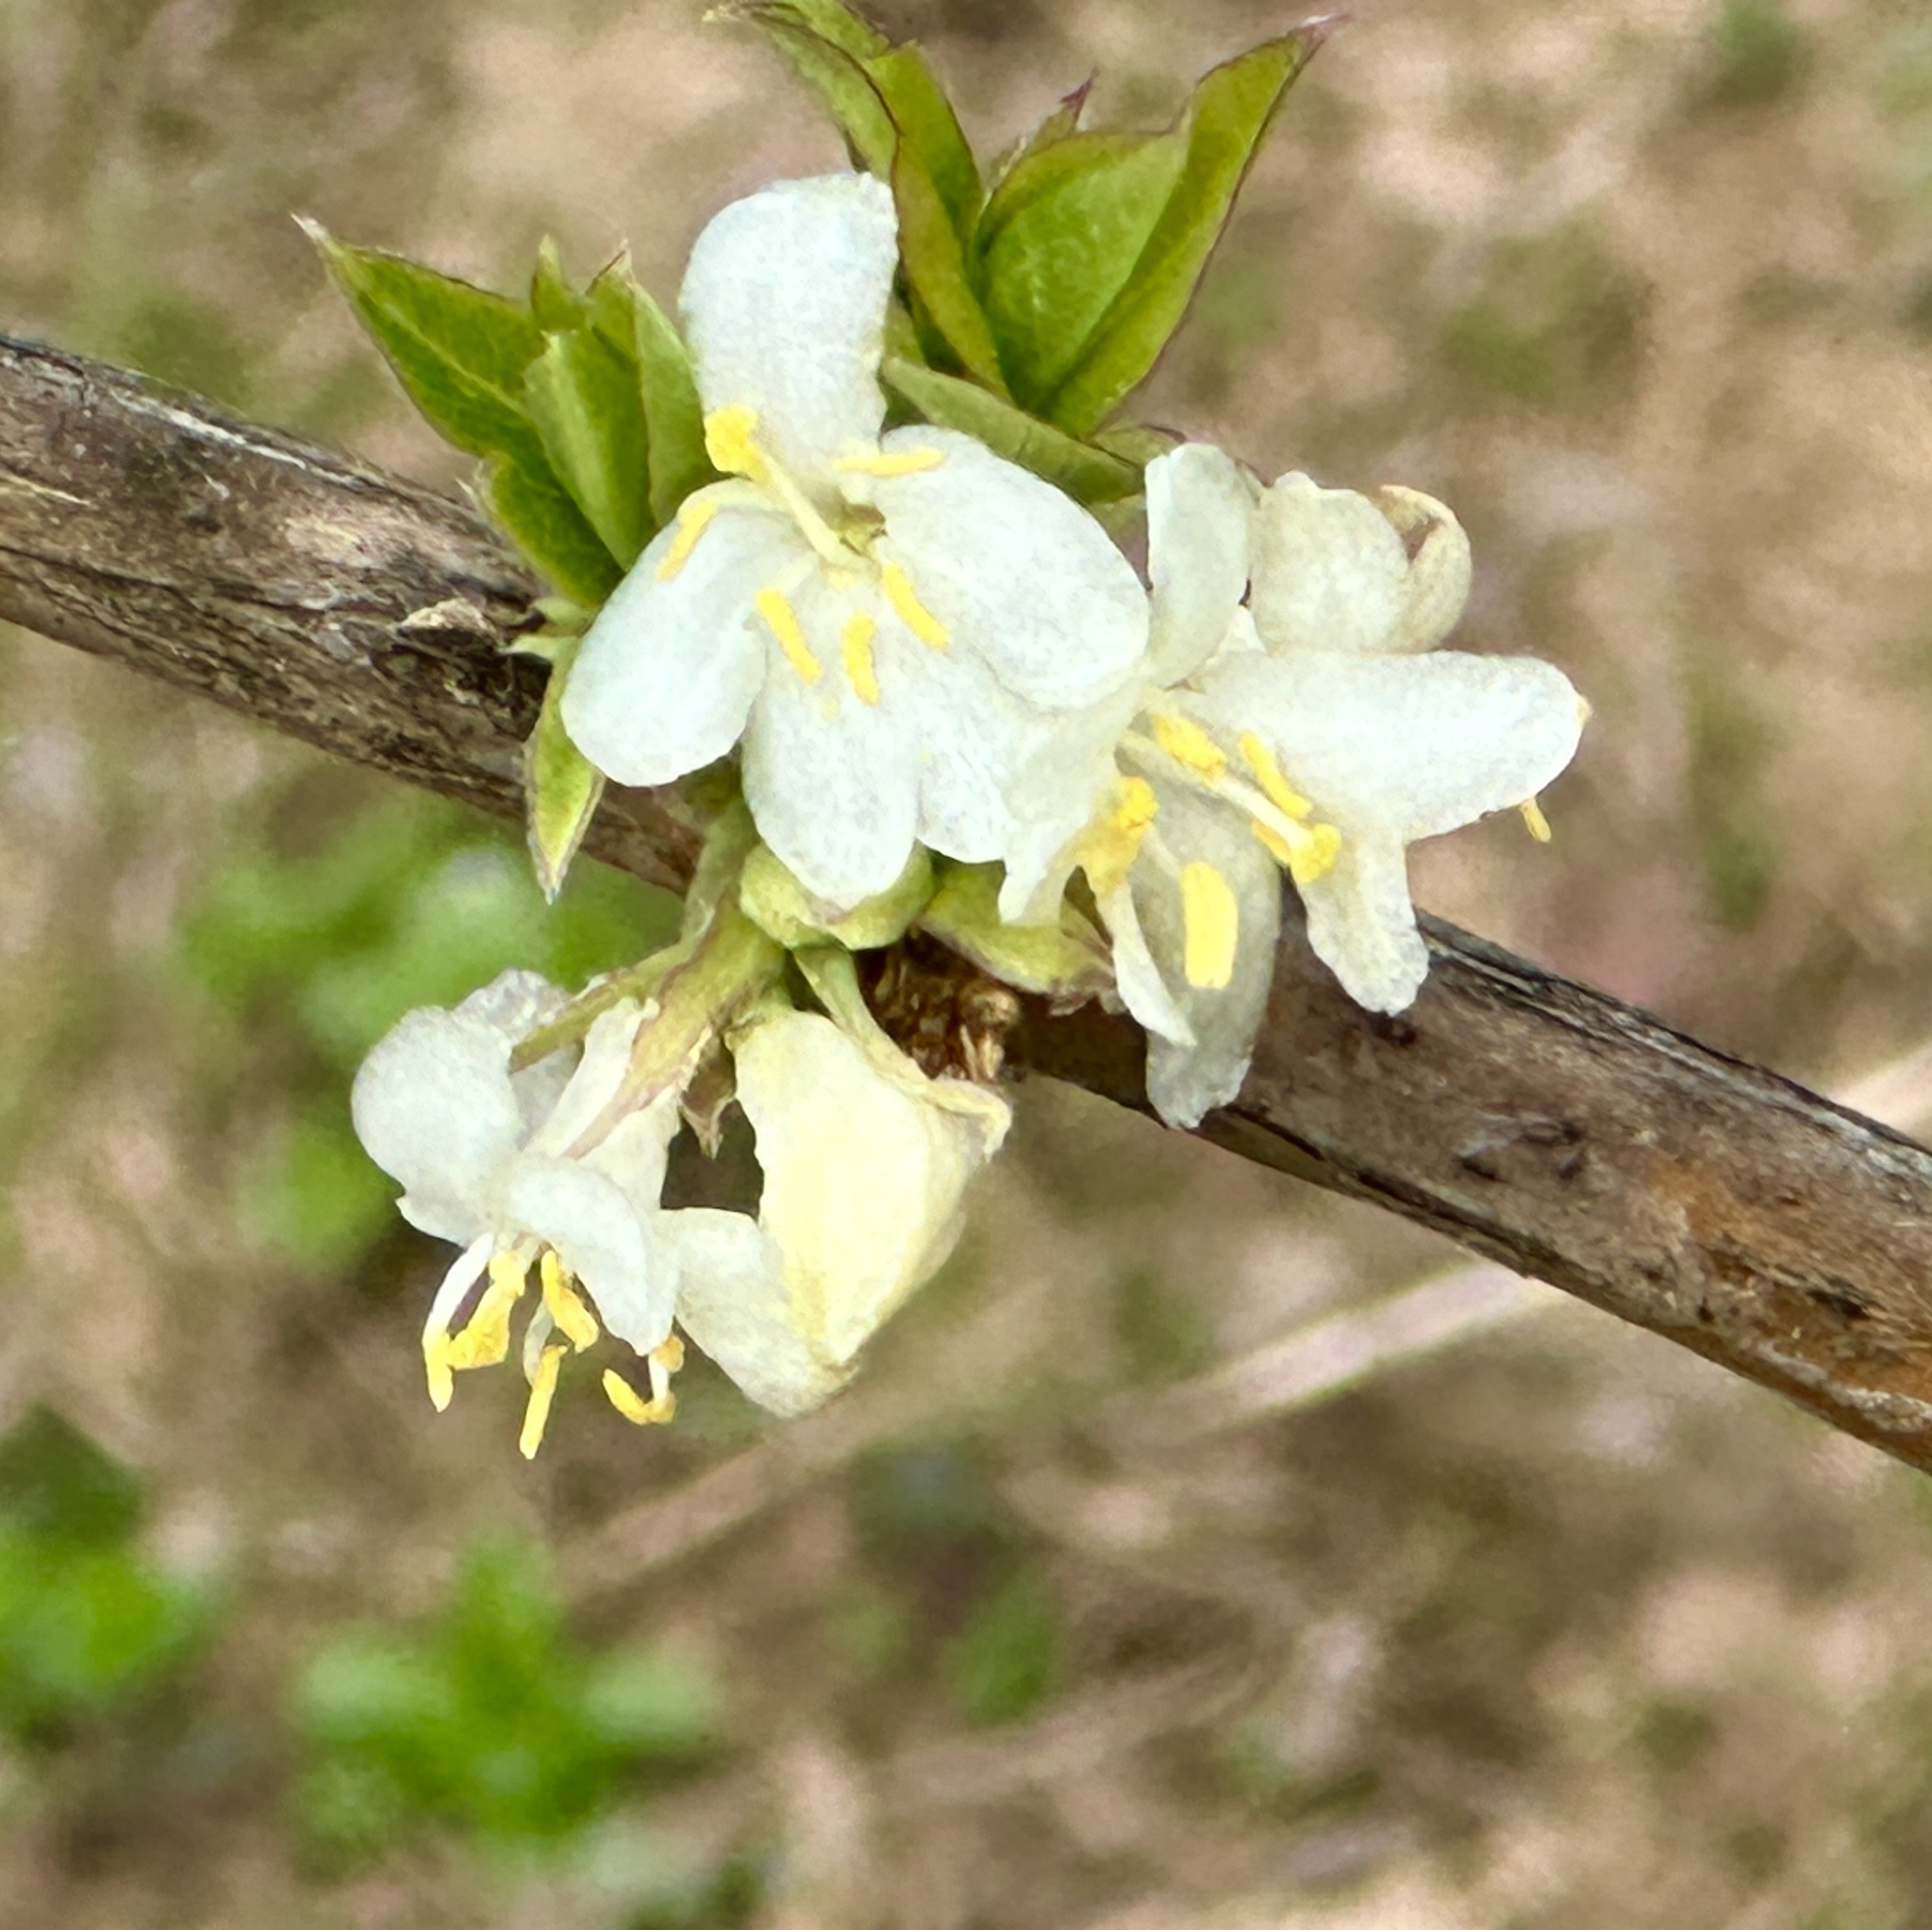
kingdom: Plantae
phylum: Tracheophyta
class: Magnoliopsida
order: Dipsacales
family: Caprifoliaceae
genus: Lonicera
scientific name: Lonicera fragrantissima
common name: Fragrant honeysuckle
